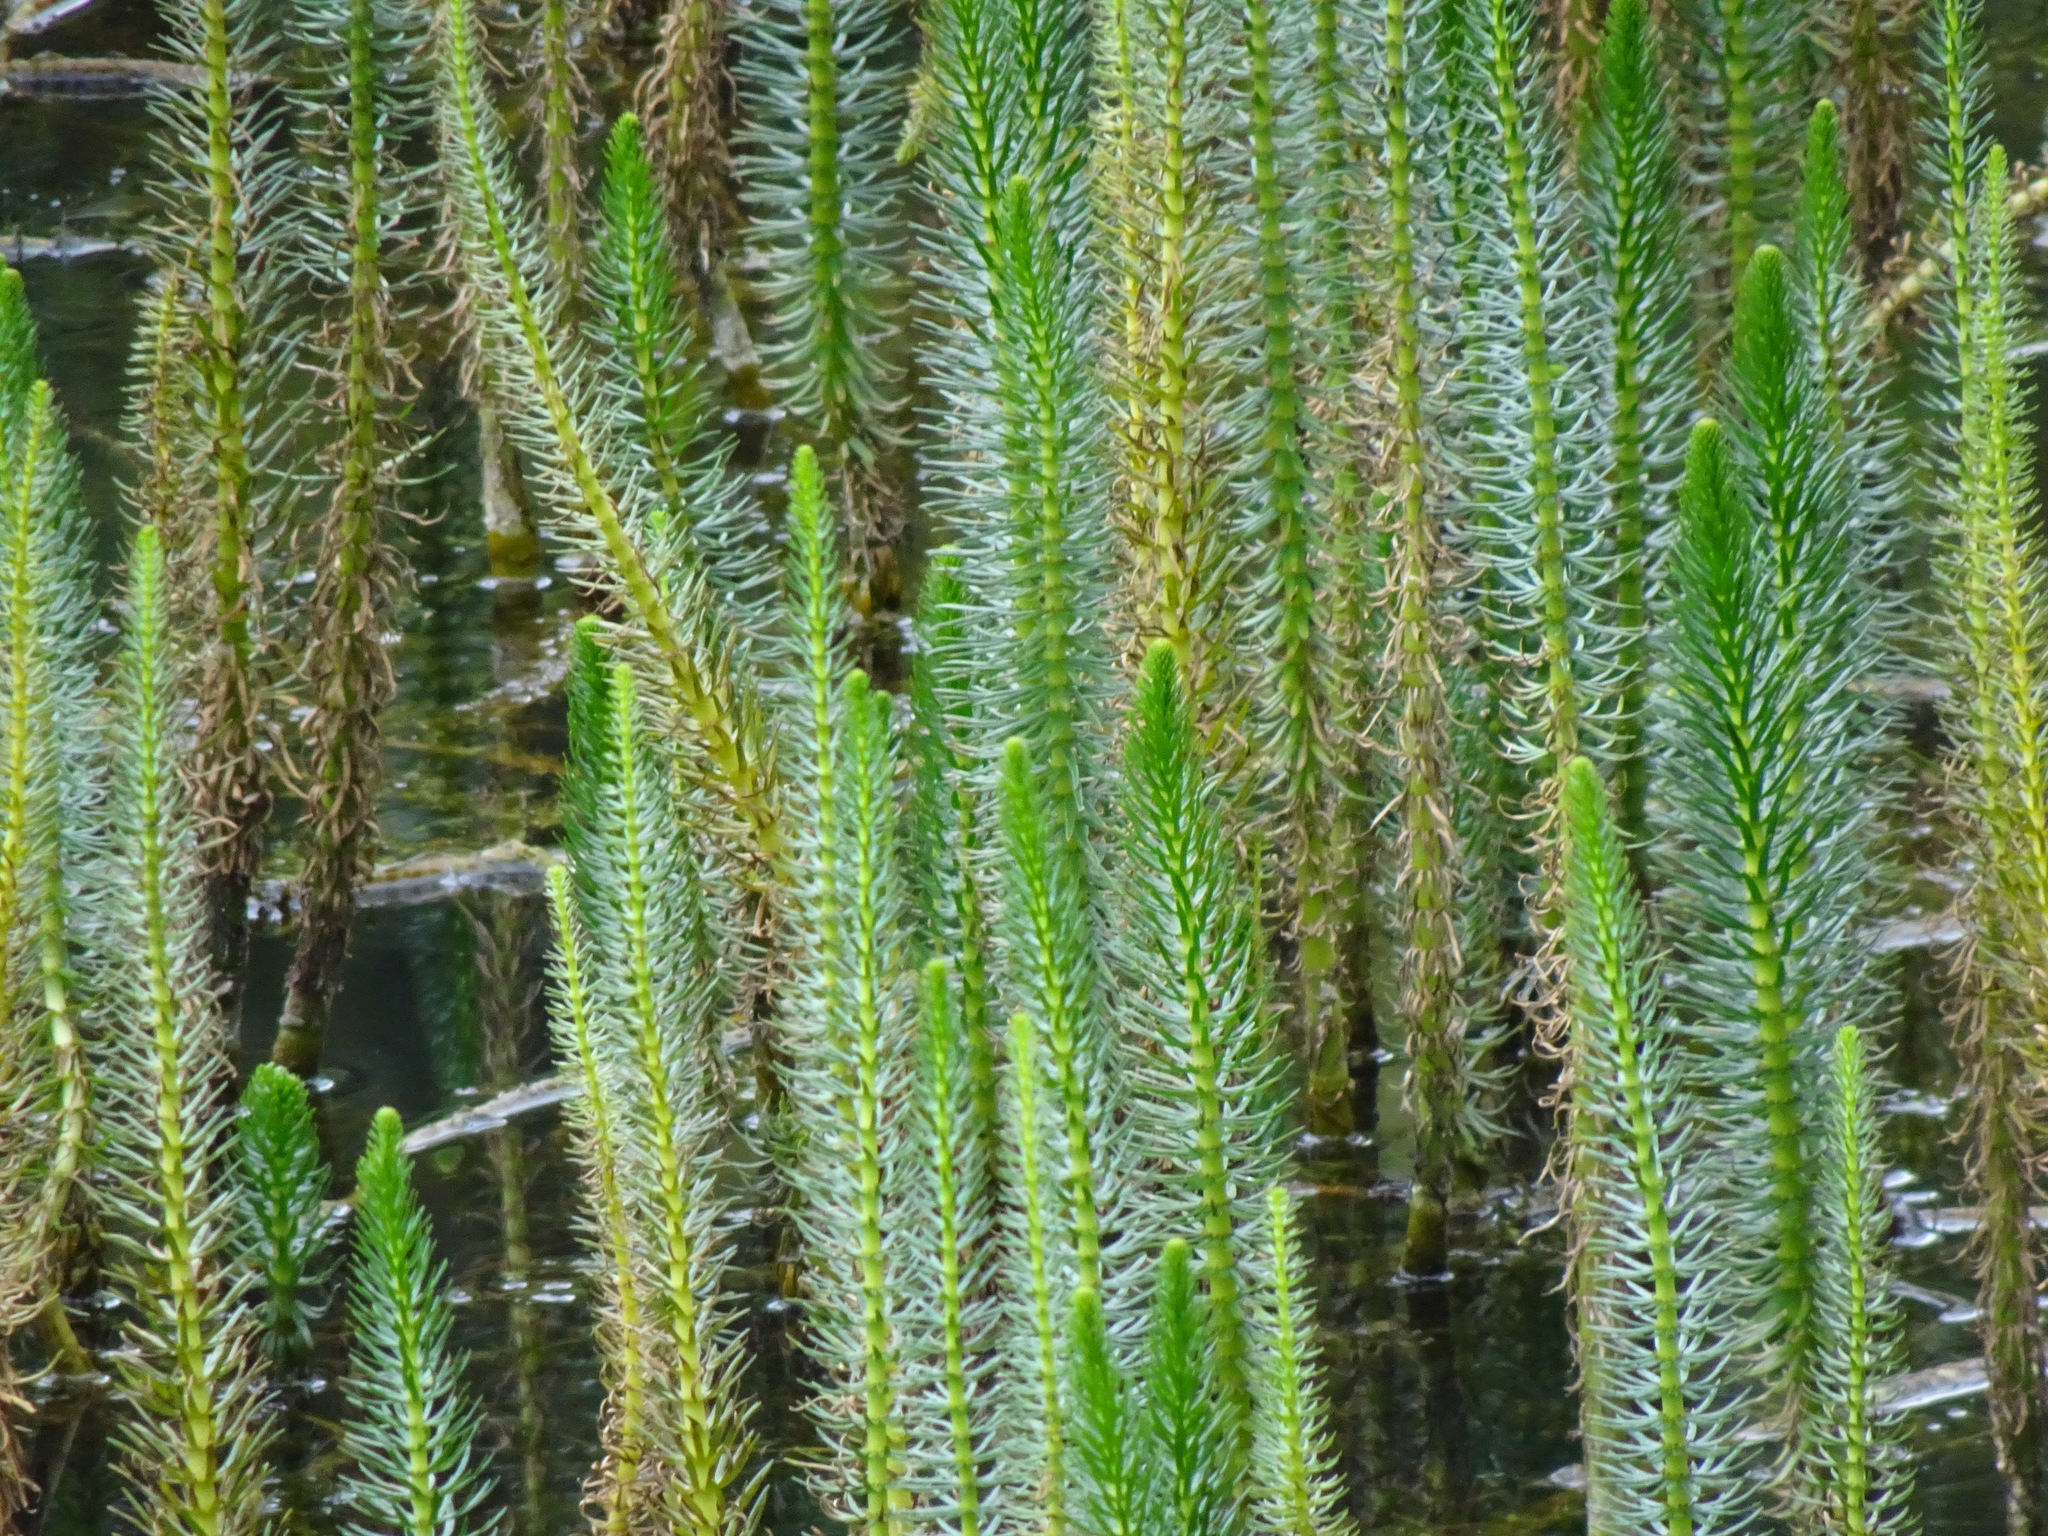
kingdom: Plantae
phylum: Tracheophyta
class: Magnoliopsida
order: Lamiales
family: Plantaginaceae
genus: Hippuris
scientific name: Hippuris vulgaris
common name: Mare's-tail
